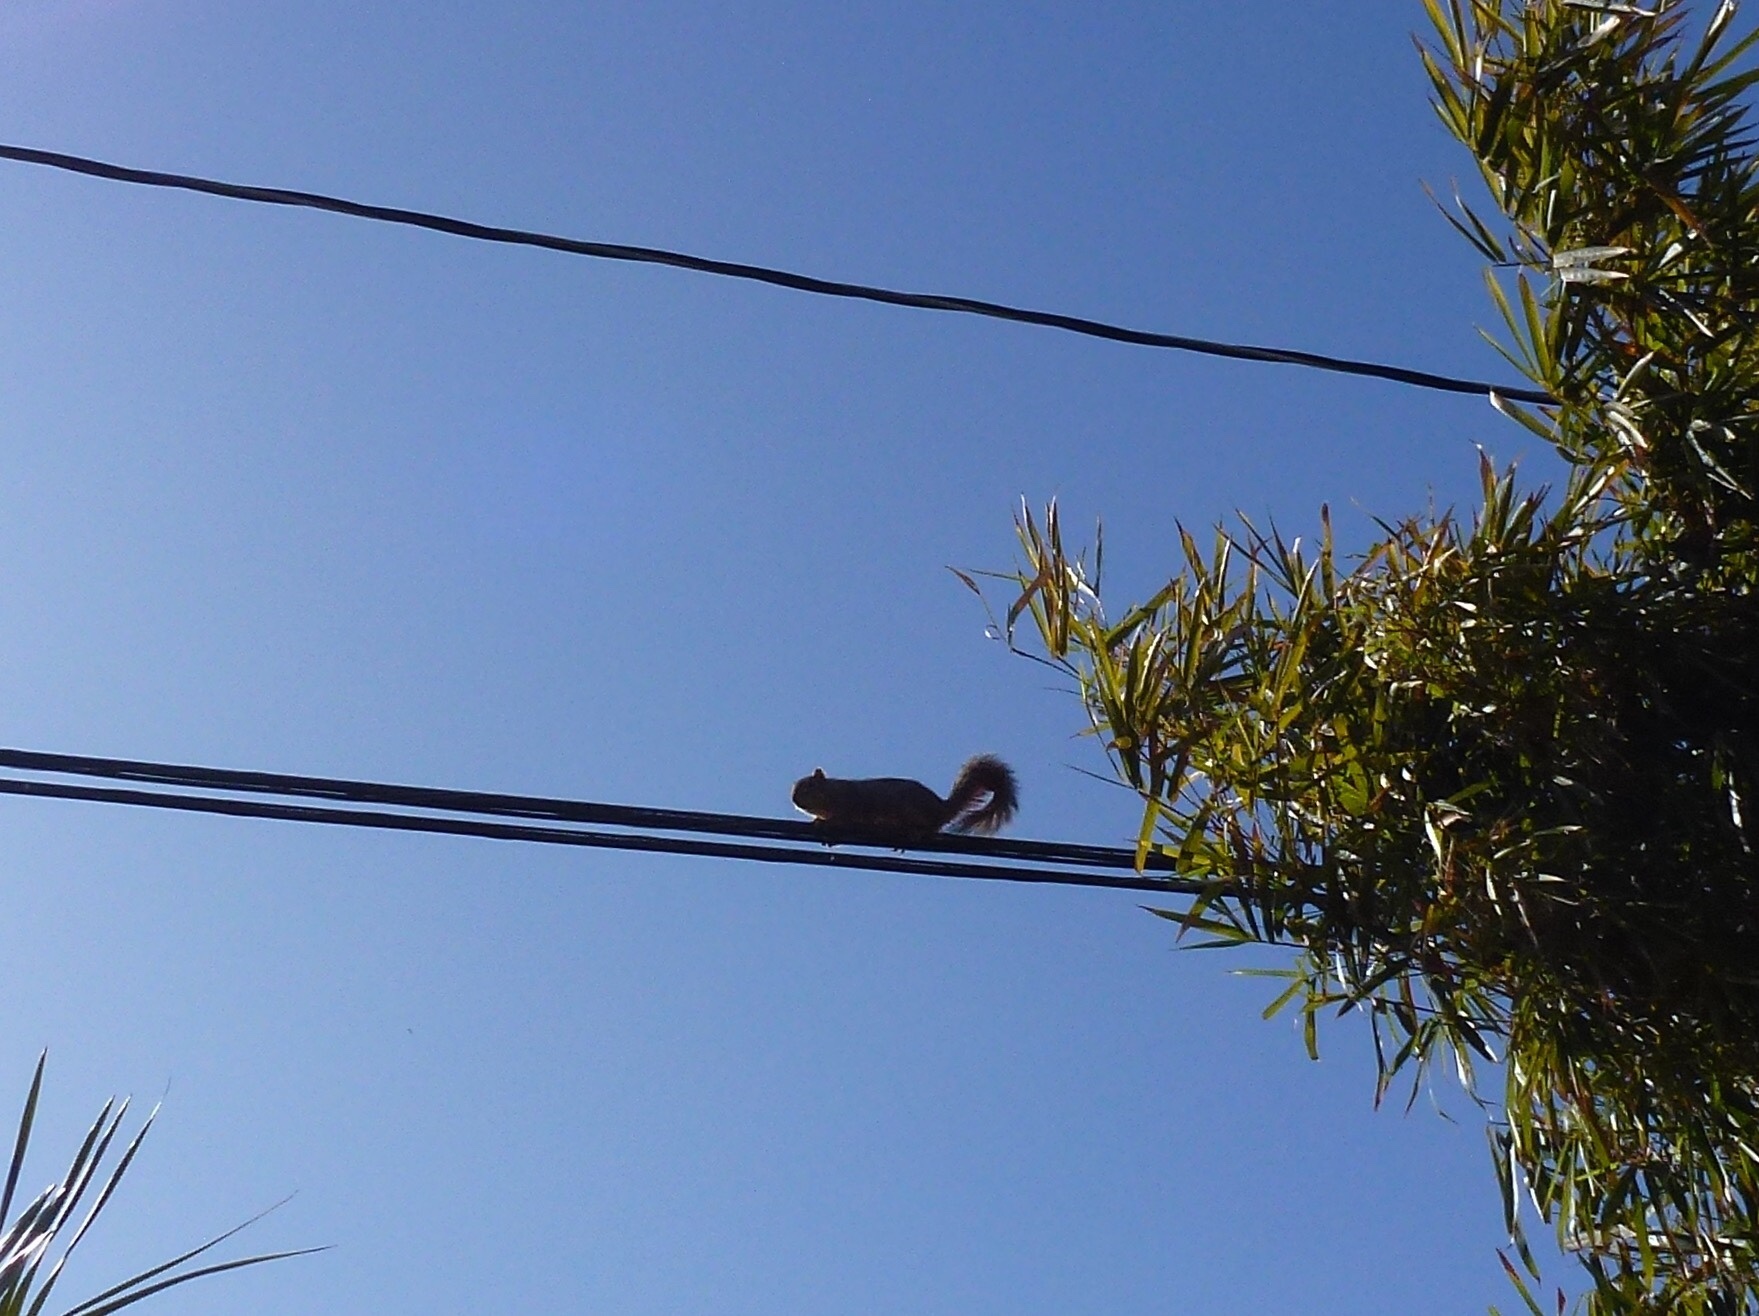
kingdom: Animalia
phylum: Chordata
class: Mammalia
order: Rodentia
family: Sciuridae
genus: Sciurus
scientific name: Sciurus niger
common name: Fox squirrel
